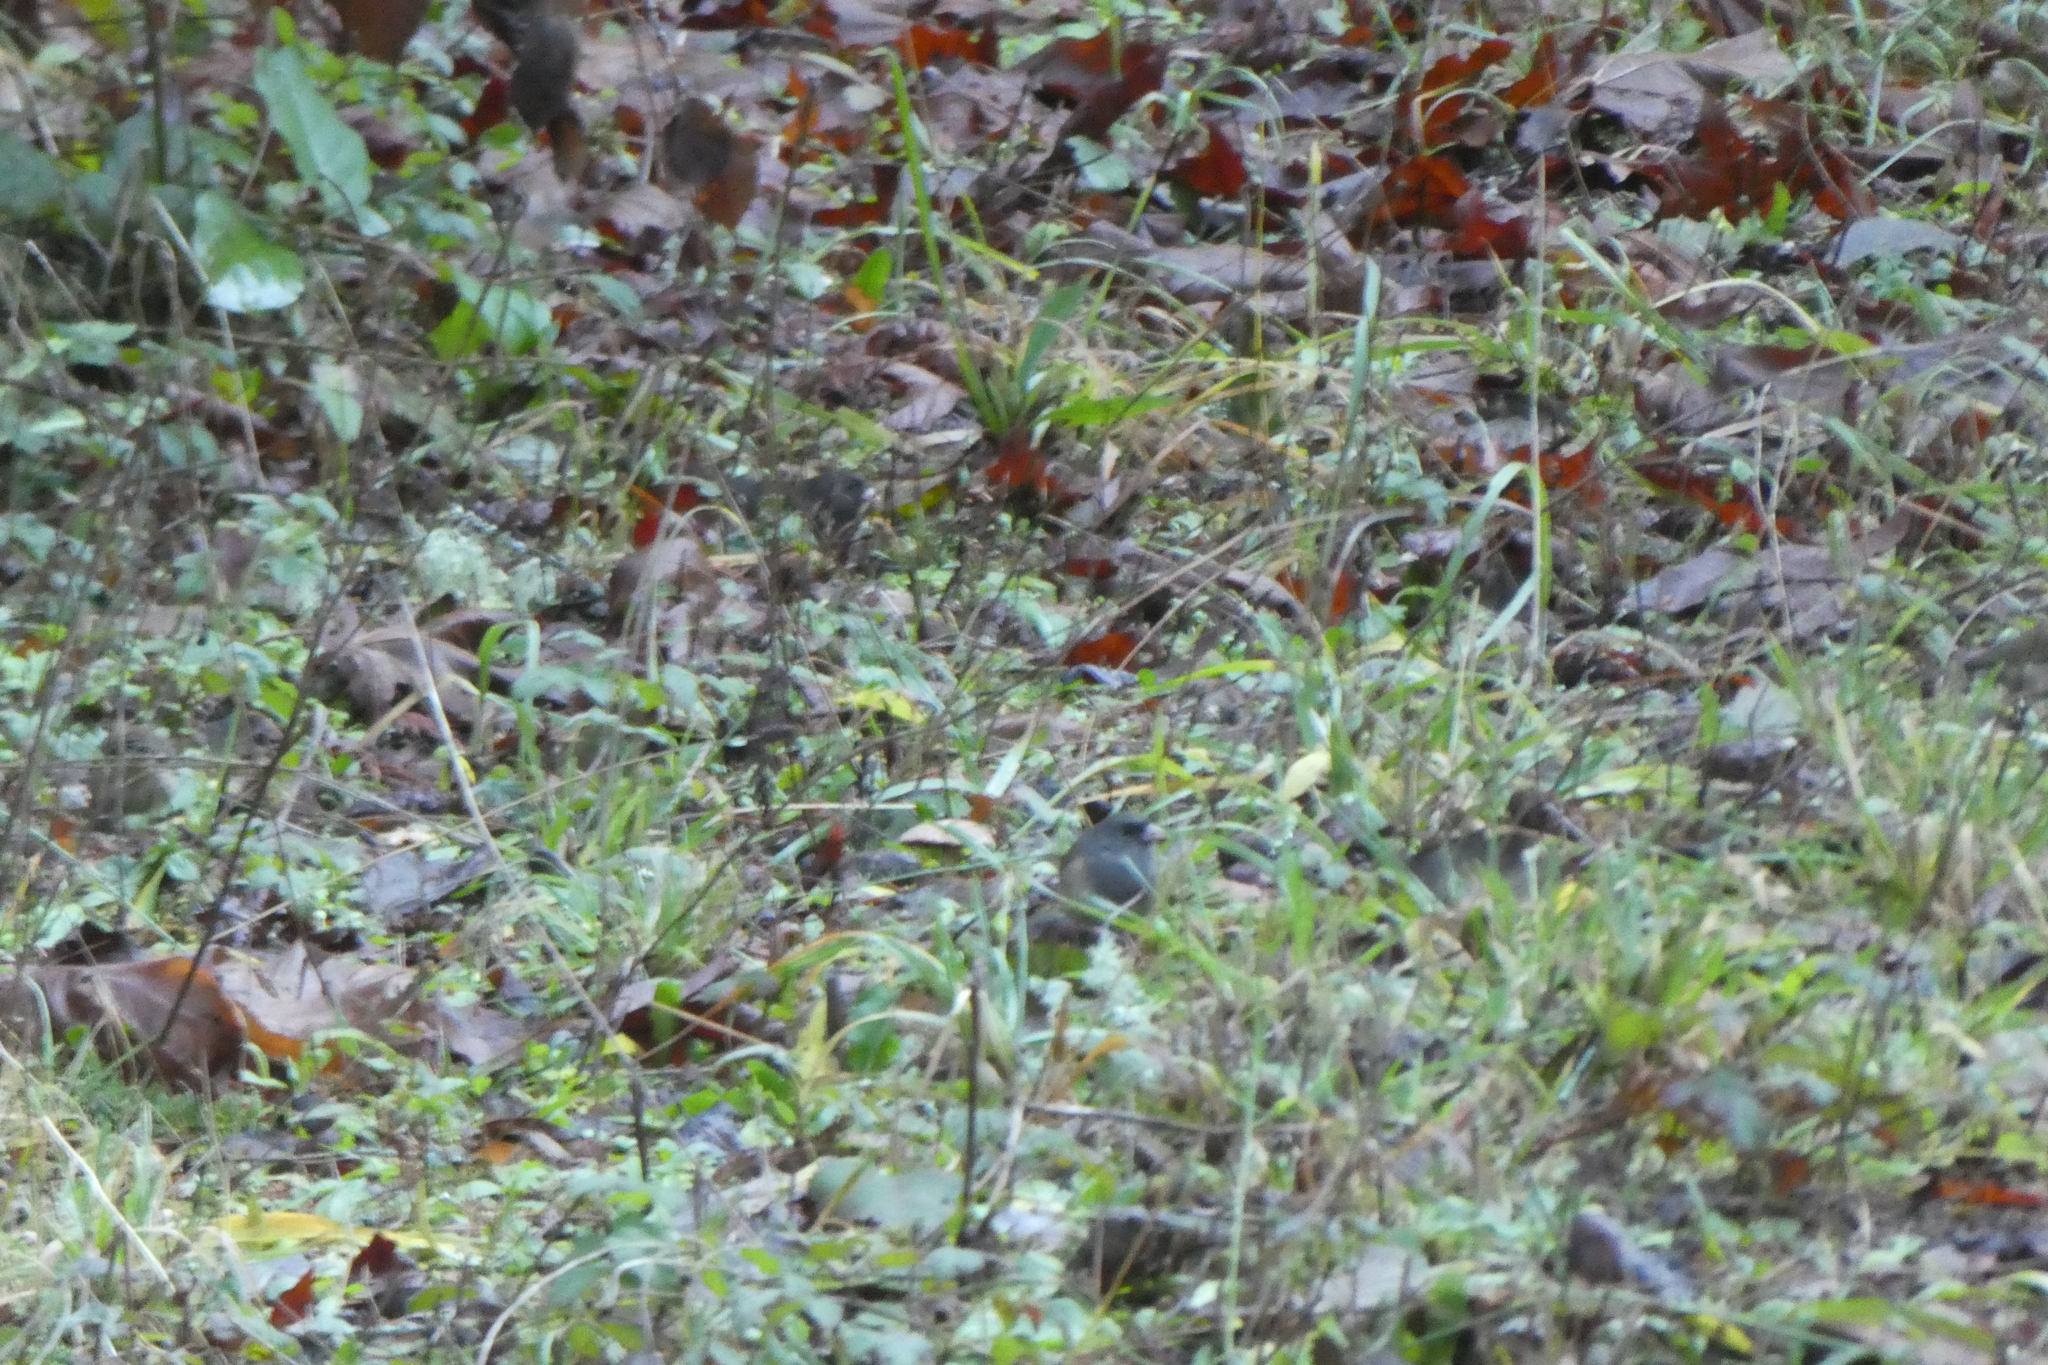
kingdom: Animalia
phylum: Chordata
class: Aves
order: Passeriformes
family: Passerellidae
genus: Junco
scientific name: Junco hyemalis
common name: Dark-eyed junco
